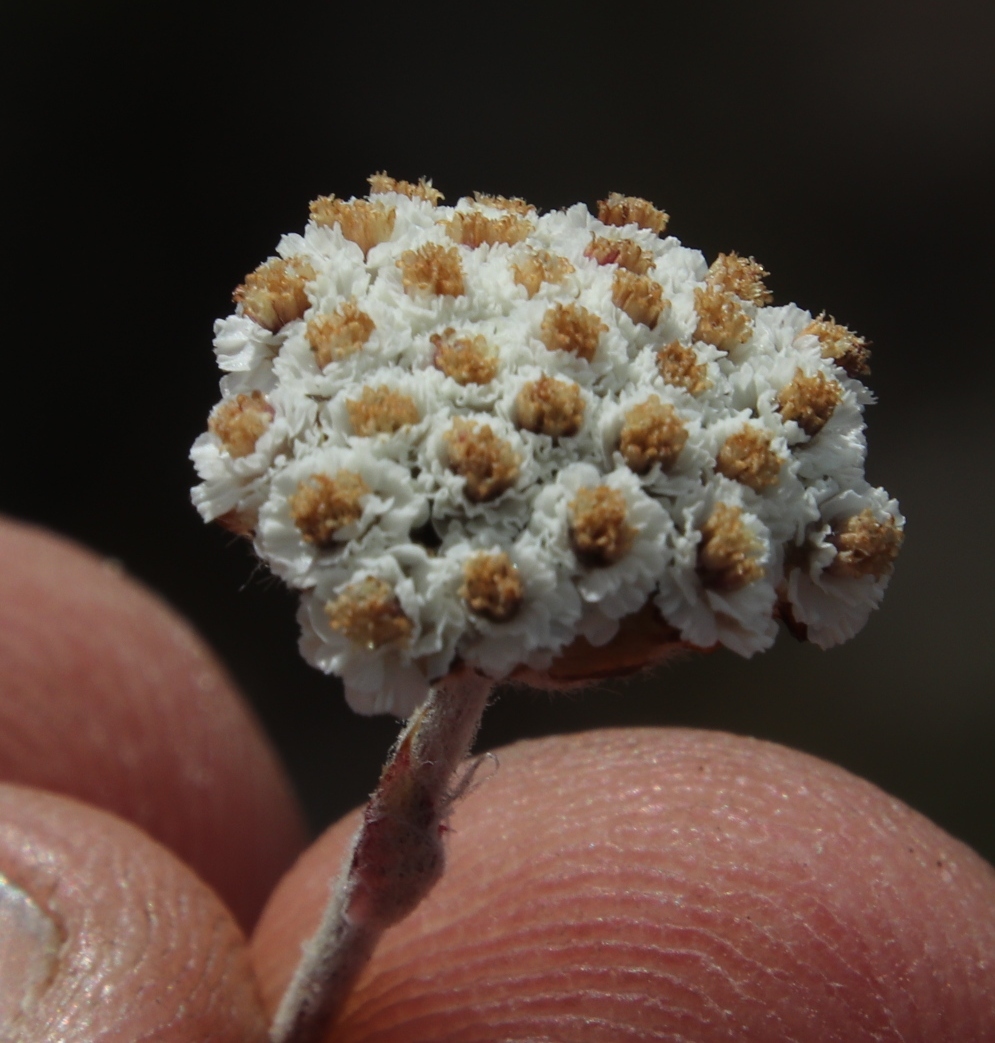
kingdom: Plantae
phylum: Tracheophyta
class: Magnoliopsida
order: Asterales
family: Asteraceae
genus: Anaxeton
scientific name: Anaxeton asperum
